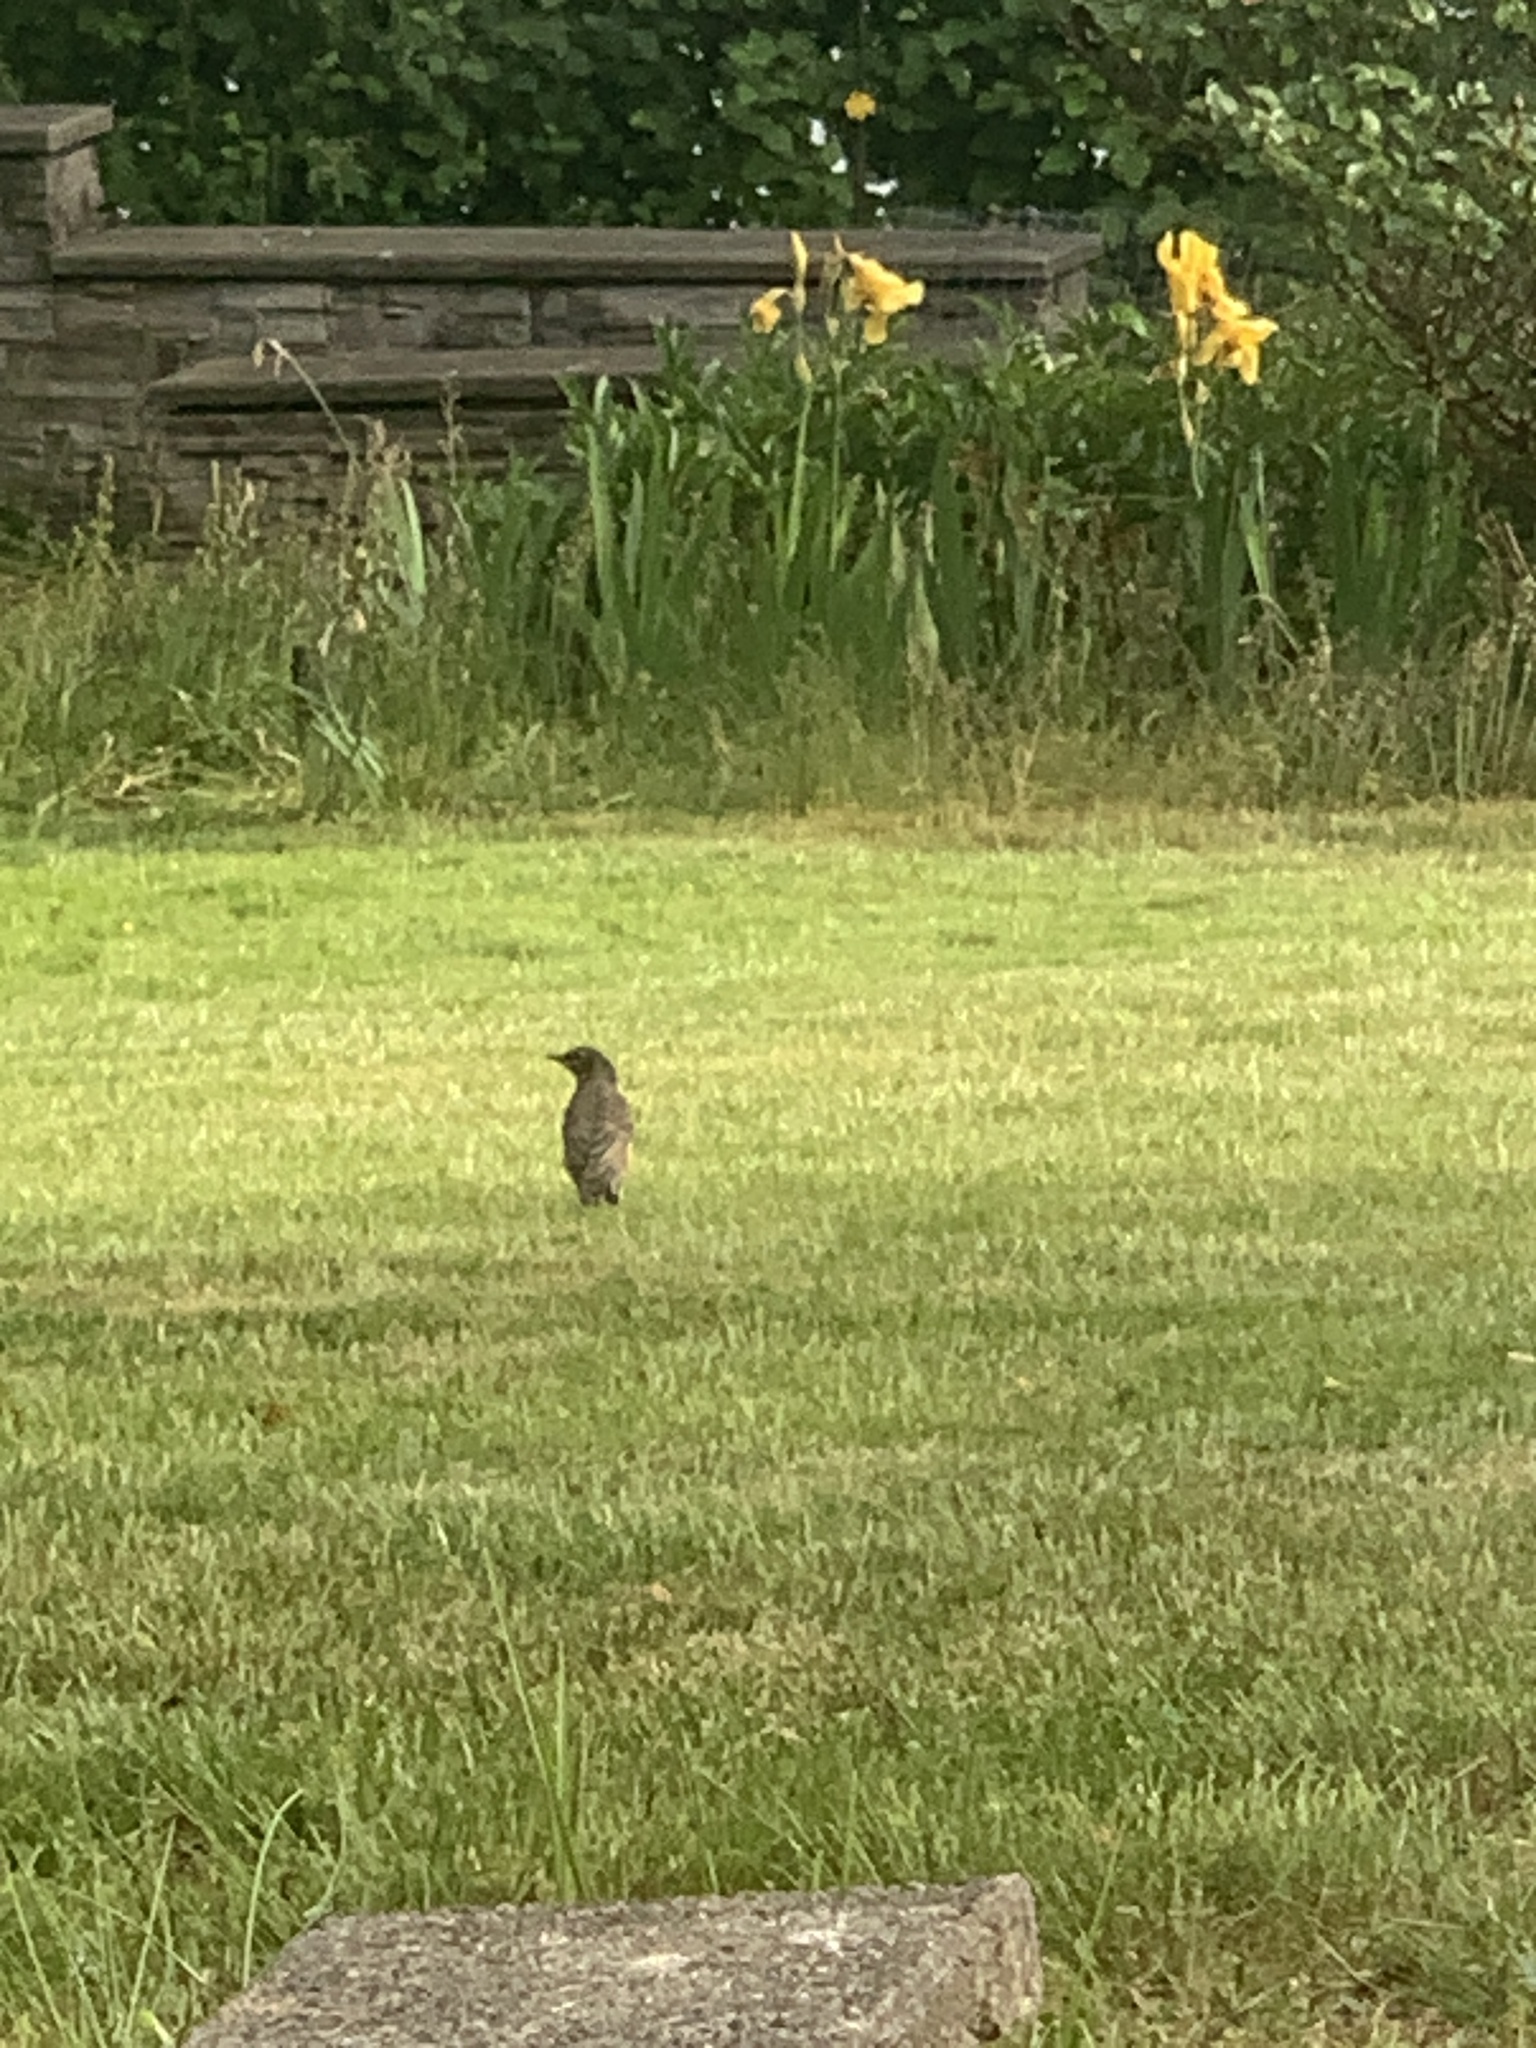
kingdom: Animalia
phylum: Chordata
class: Aves
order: Passeriformes
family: Turdidae
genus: Turdus
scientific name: Turdus migratorius
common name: American robin
